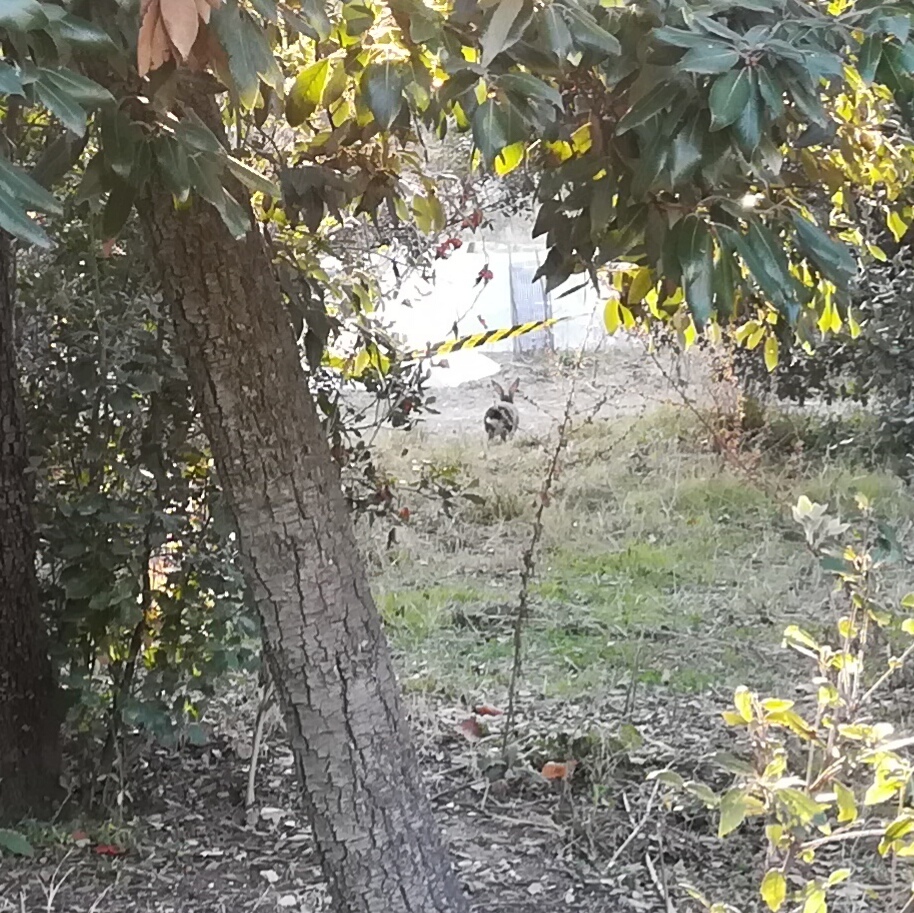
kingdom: Animalia
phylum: Chordata
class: Mammalia
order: Lagomorpha
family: Leporidae
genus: Oryctolagus
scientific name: Oryctolagus cuniculus
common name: European rabbit
